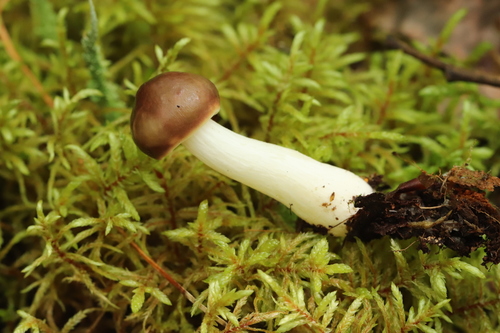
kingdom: Fungi
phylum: Basidiomycota
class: Agaricomycetes
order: Russulales
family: Russulaceae
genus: Russula
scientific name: Russula
